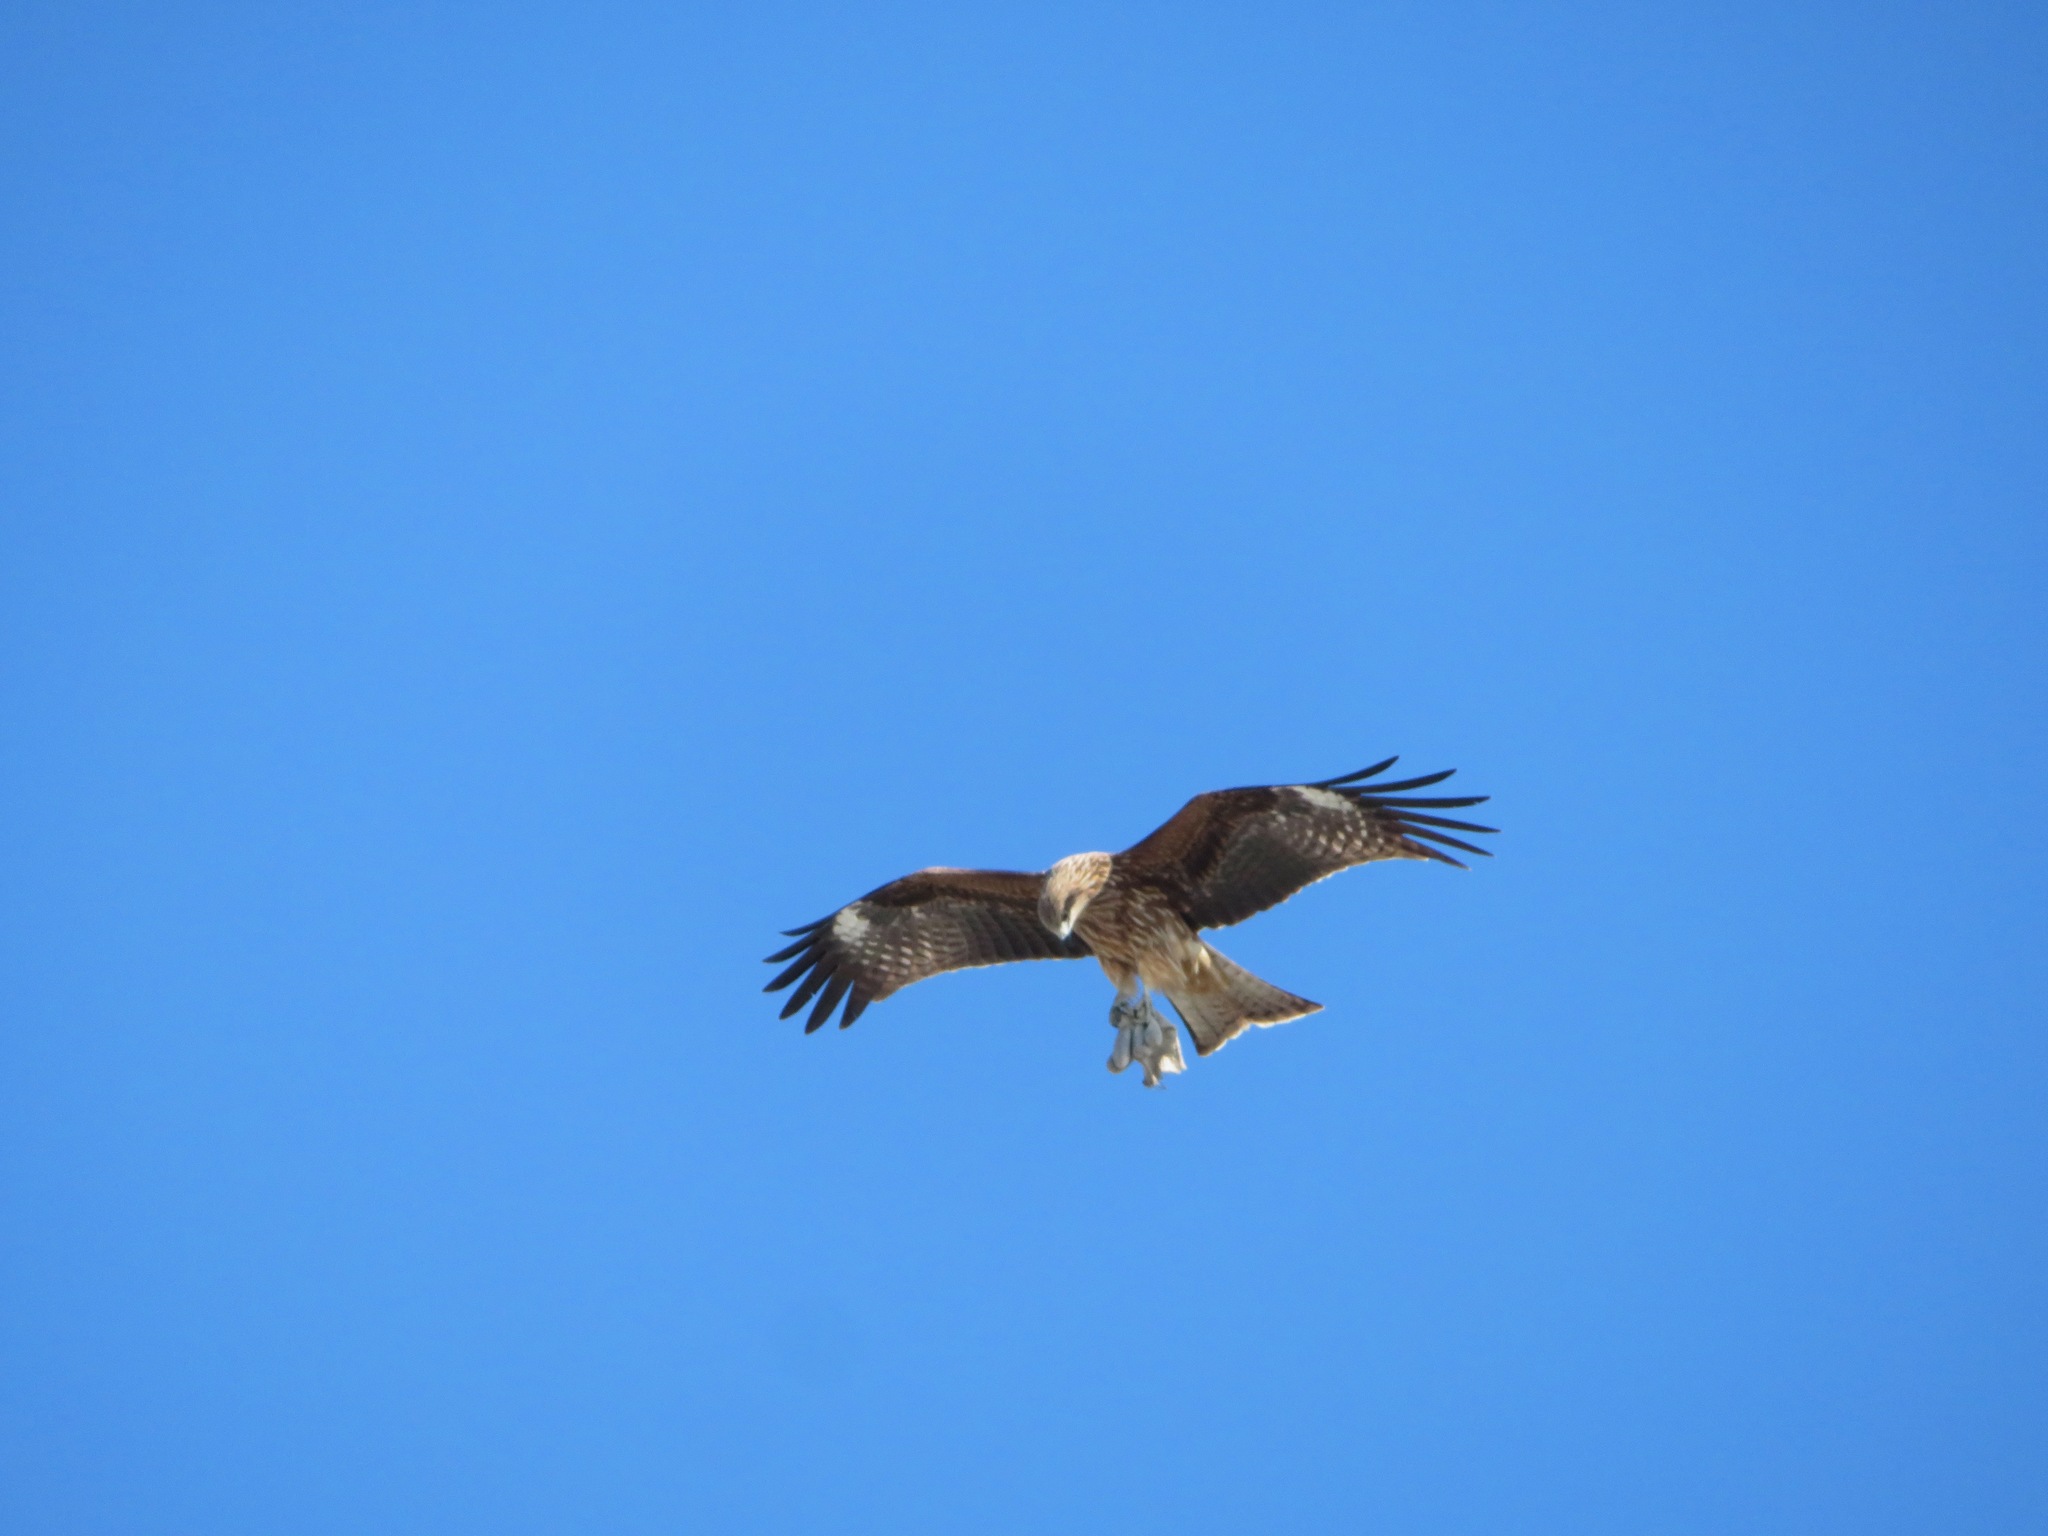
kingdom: Animalia
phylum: Chordata
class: Aves
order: Accipitriformes
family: Accipitridae
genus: Milvus
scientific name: Milvus migrans
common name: Black kite
